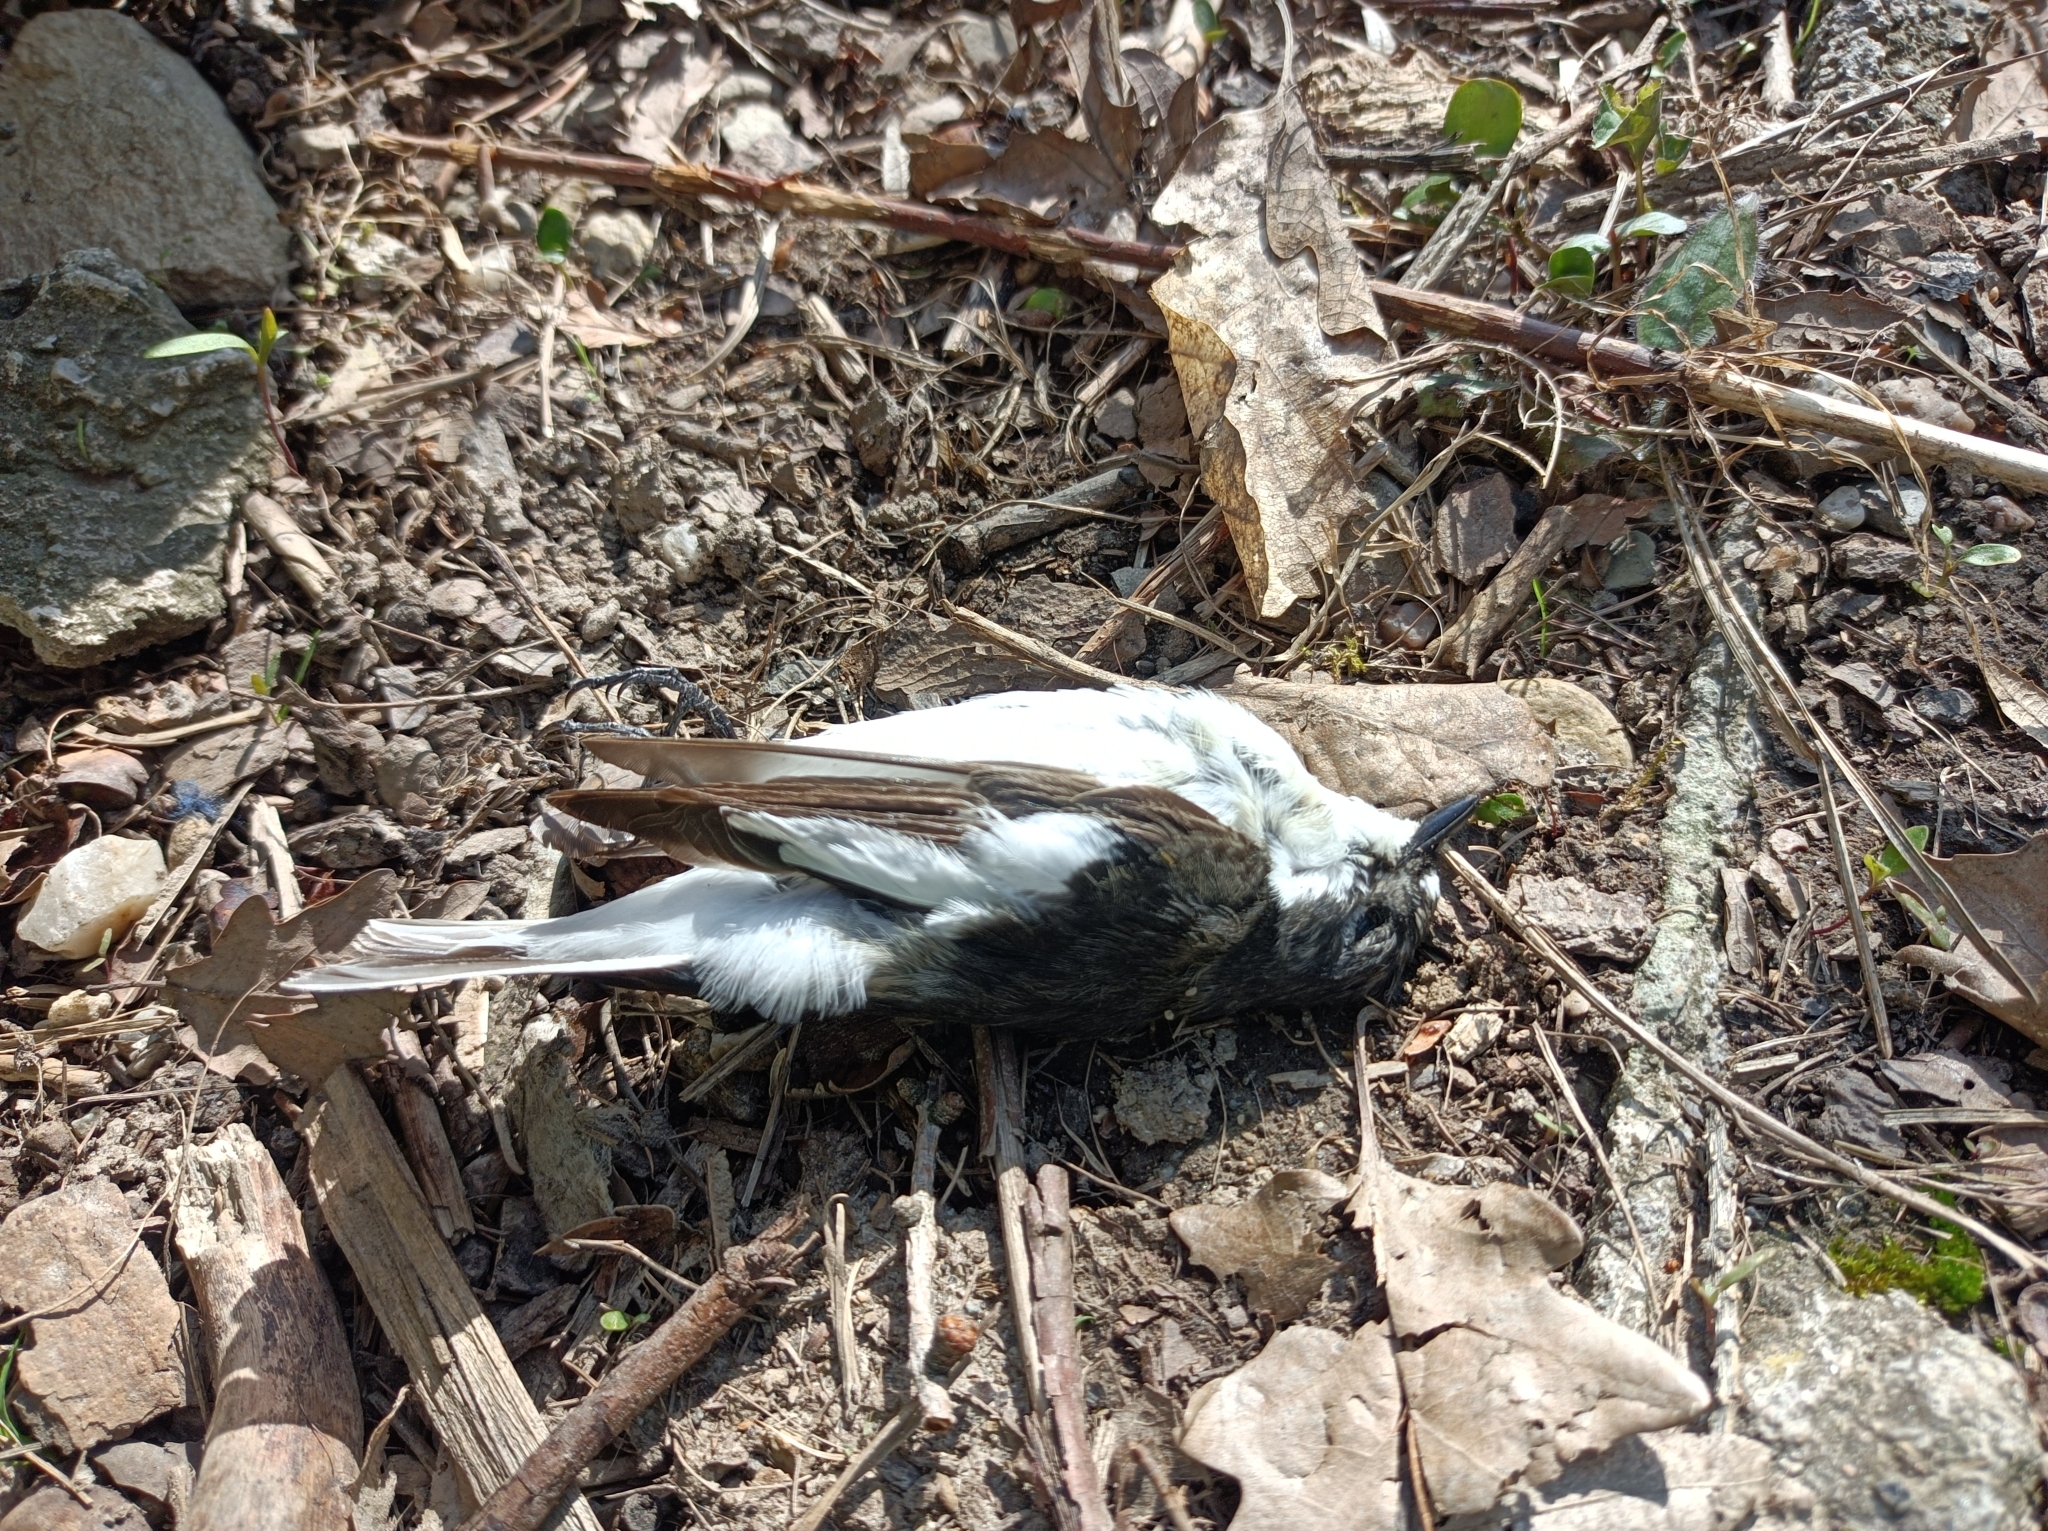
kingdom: Animalia
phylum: Chordata
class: Aves
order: Passeriformes
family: Muscicapidae
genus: Ficedula
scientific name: Ficedula hypoleuca
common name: European pied flycatcher
